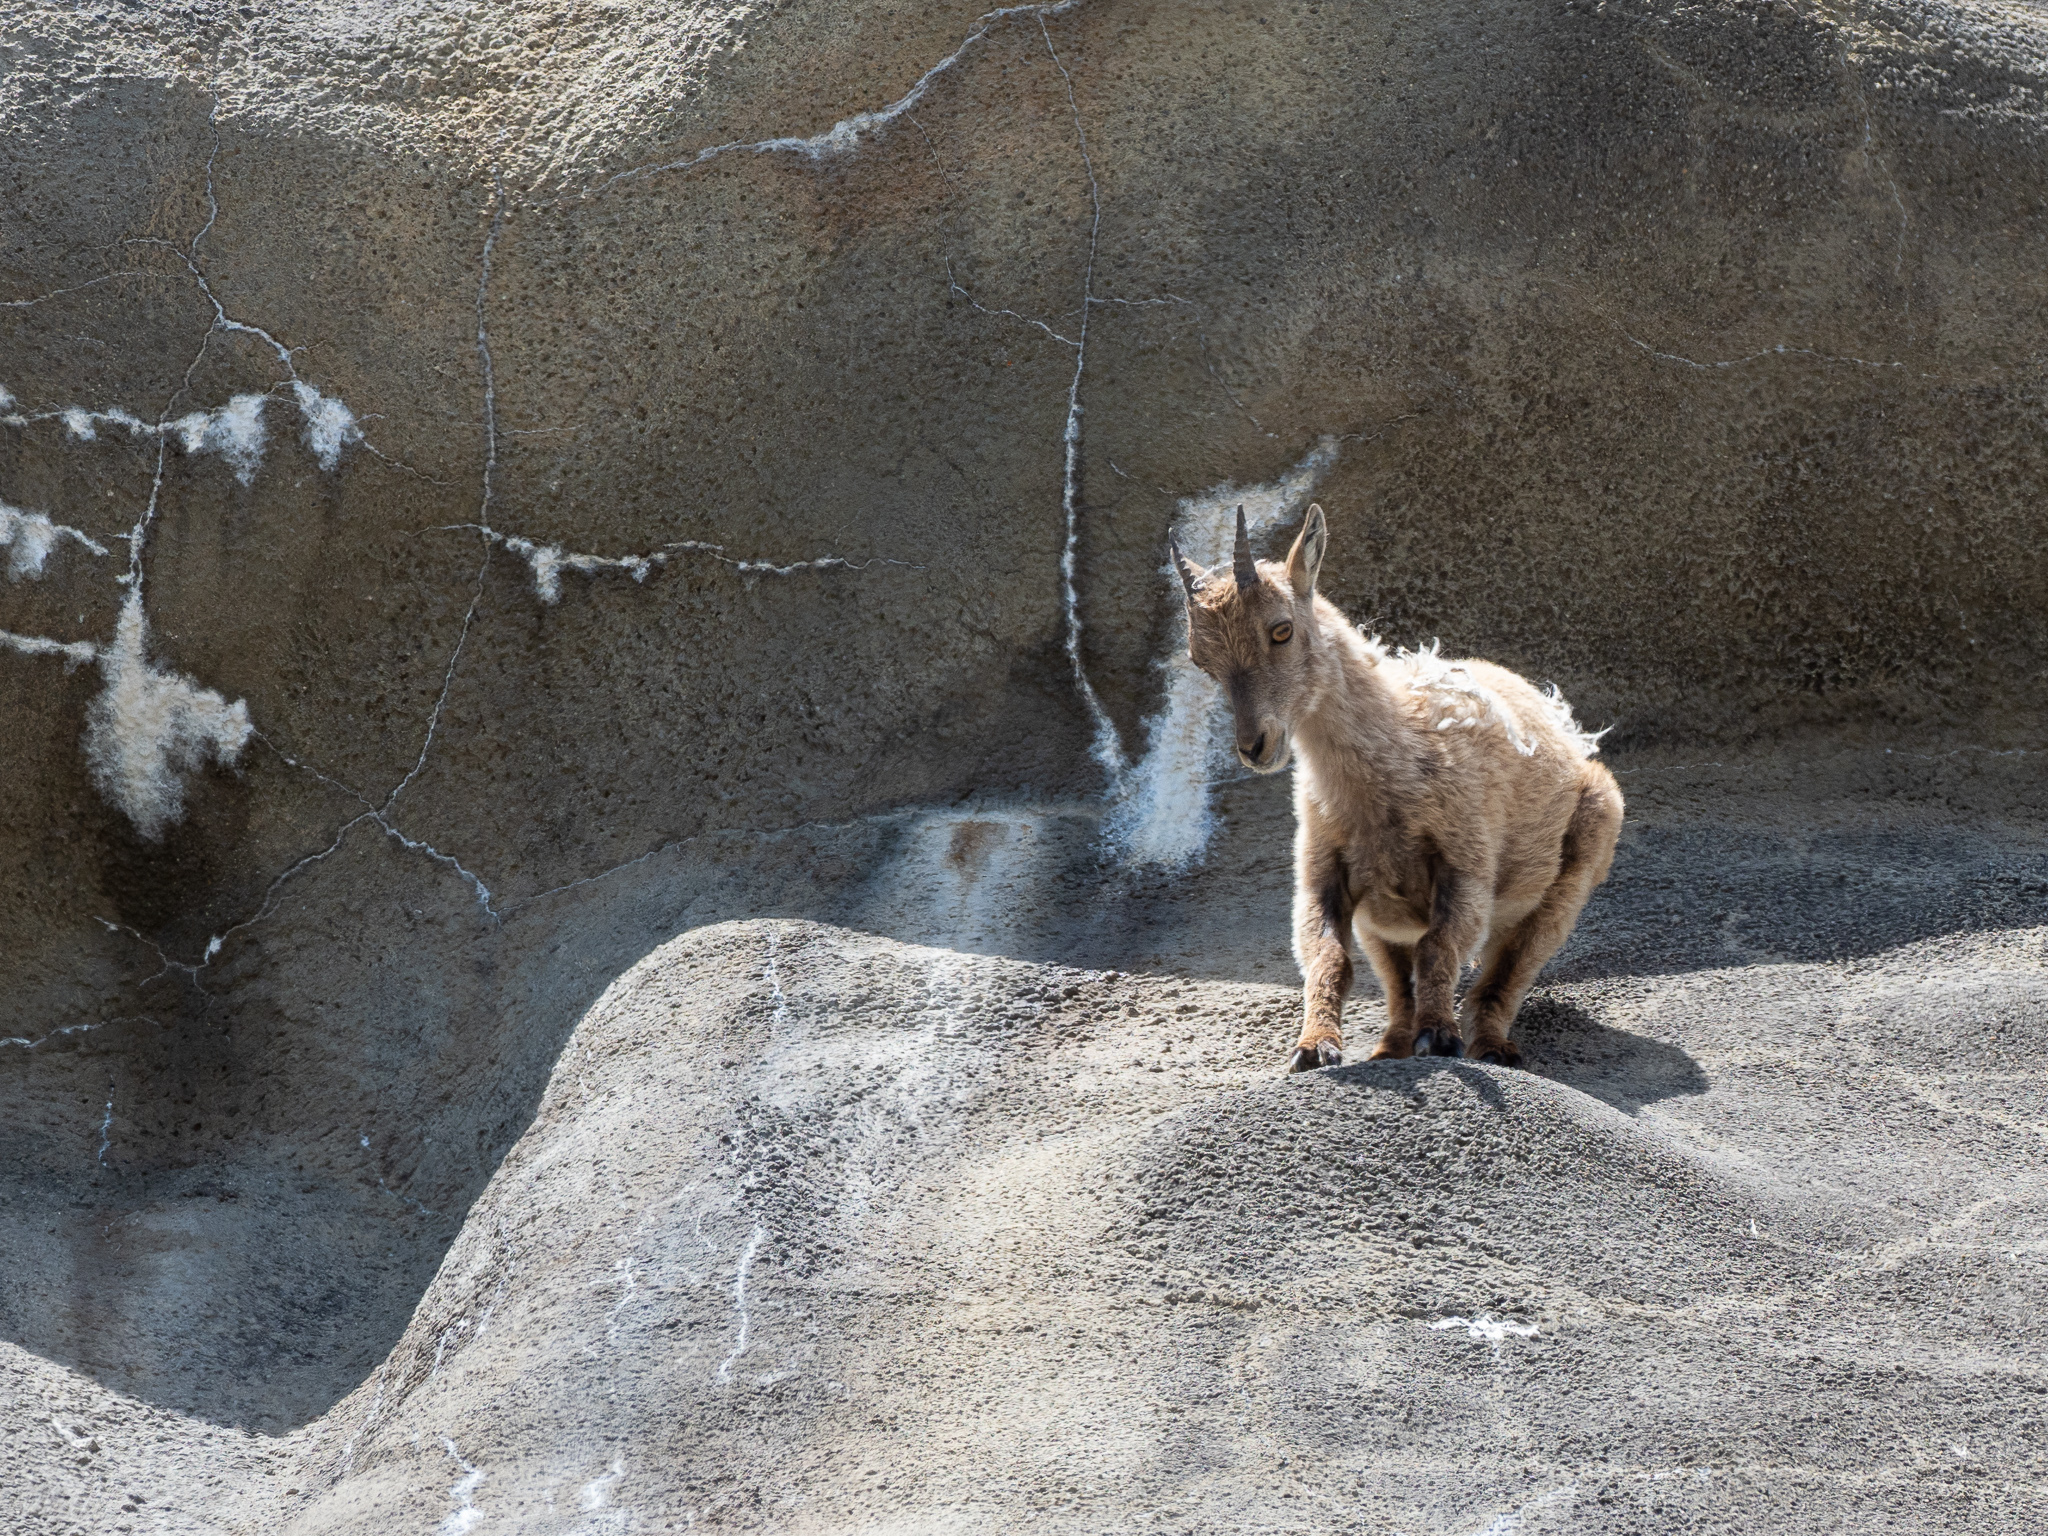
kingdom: Animalia
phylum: Chordata
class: Mammalia
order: Artiodactyla
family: Bovidae
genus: Capra
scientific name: Capra ibex
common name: Alpine ibex
